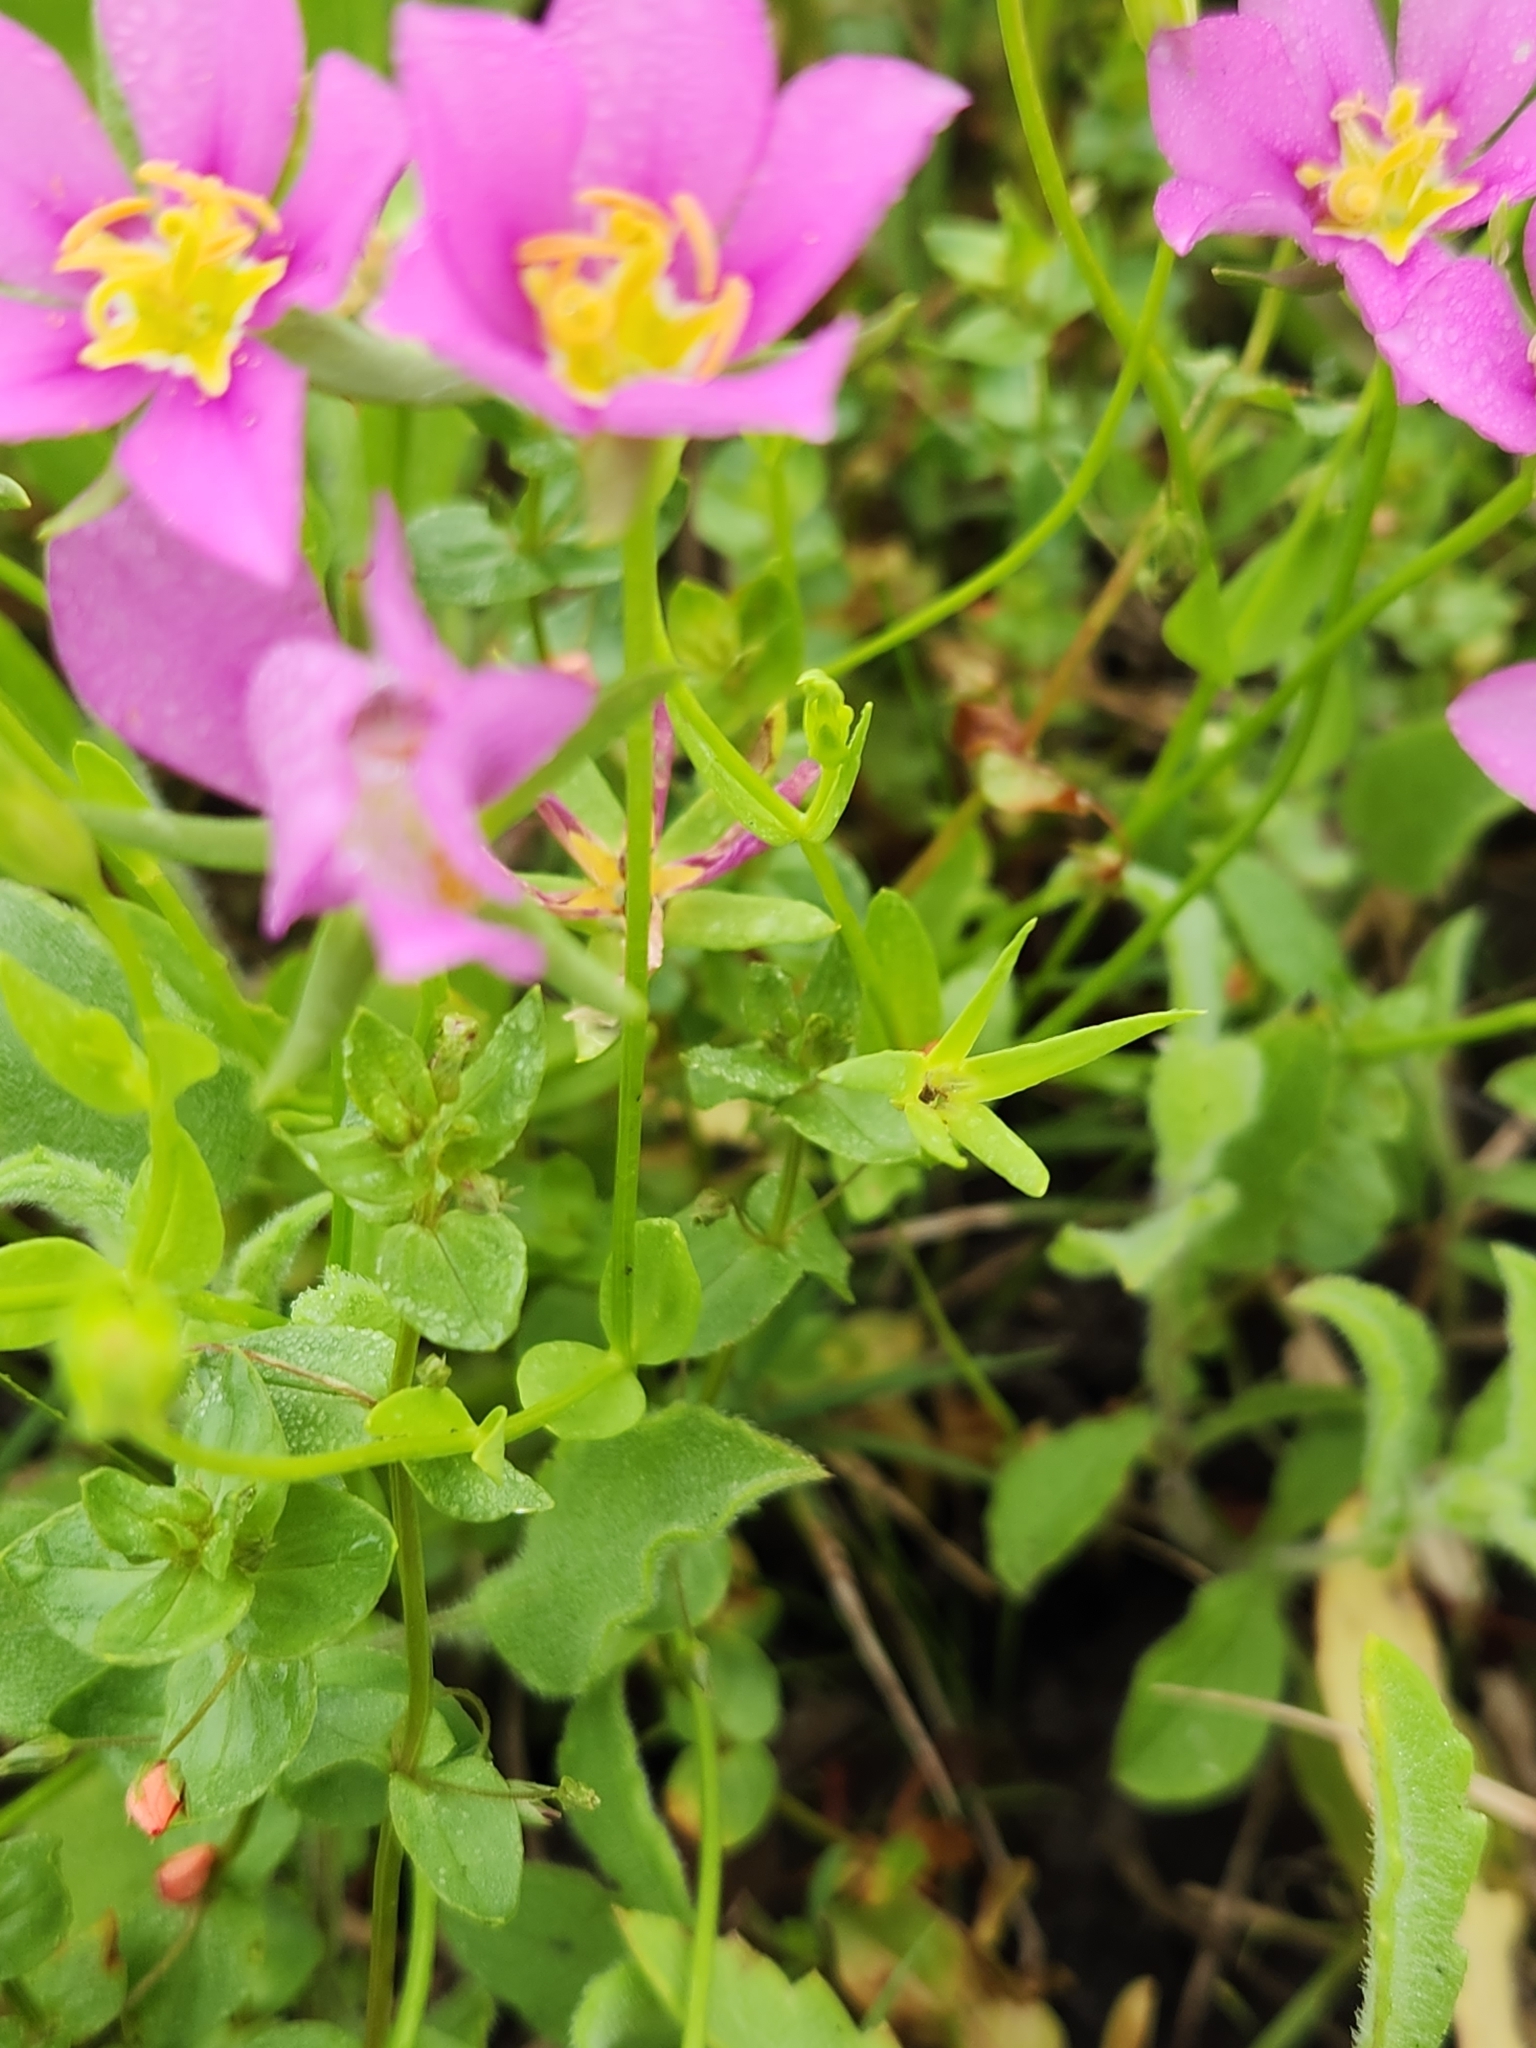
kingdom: Plantae
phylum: Tracheophyta
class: Magnoliopsida
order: Gentianales
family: Gentianaceae
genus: Sabatia
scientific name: Sabatia campestris
